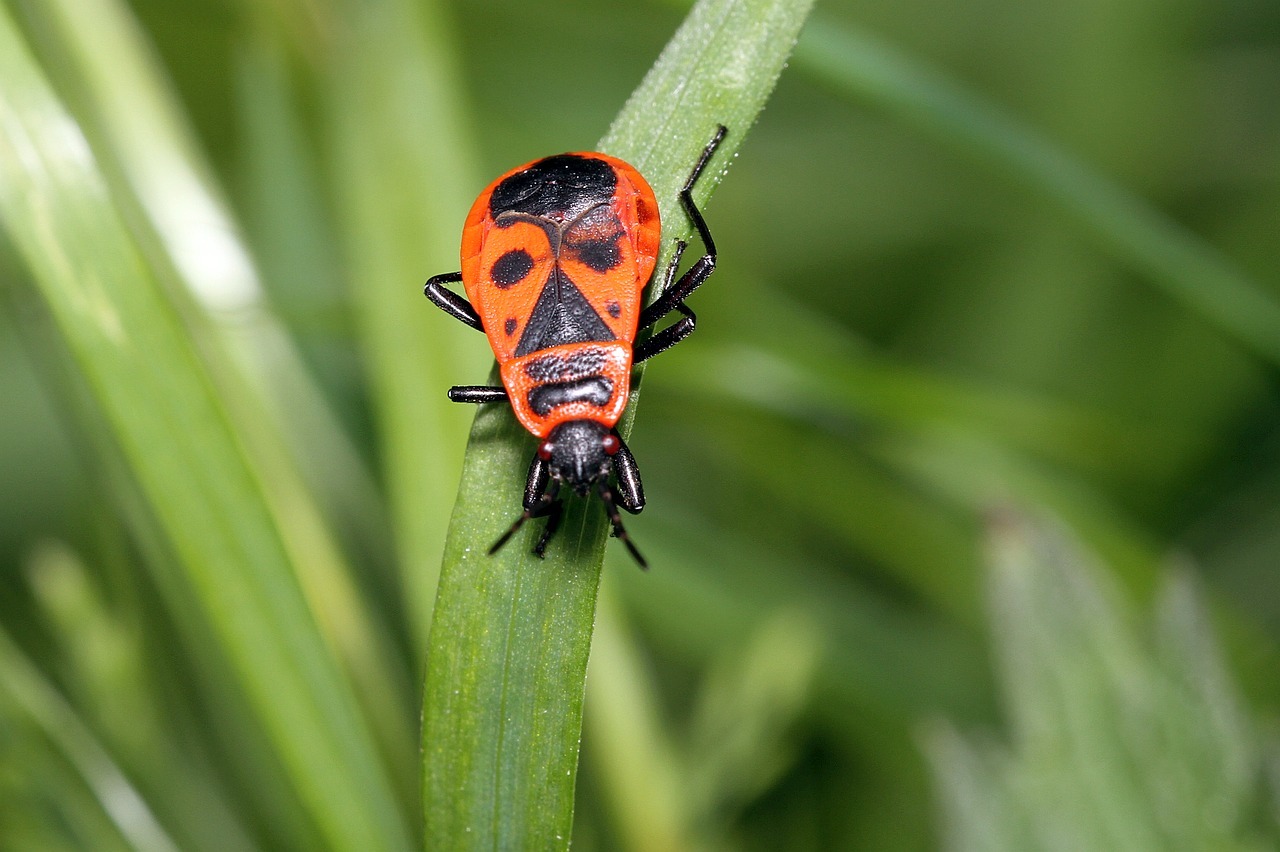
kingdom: Animalia
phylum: Arthropoda
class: Insecta
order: Hemiptera
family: Pyrrhocoridae
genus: Pyrrhocoris
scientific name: Pyrrhocoris apterus
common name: Firebug
